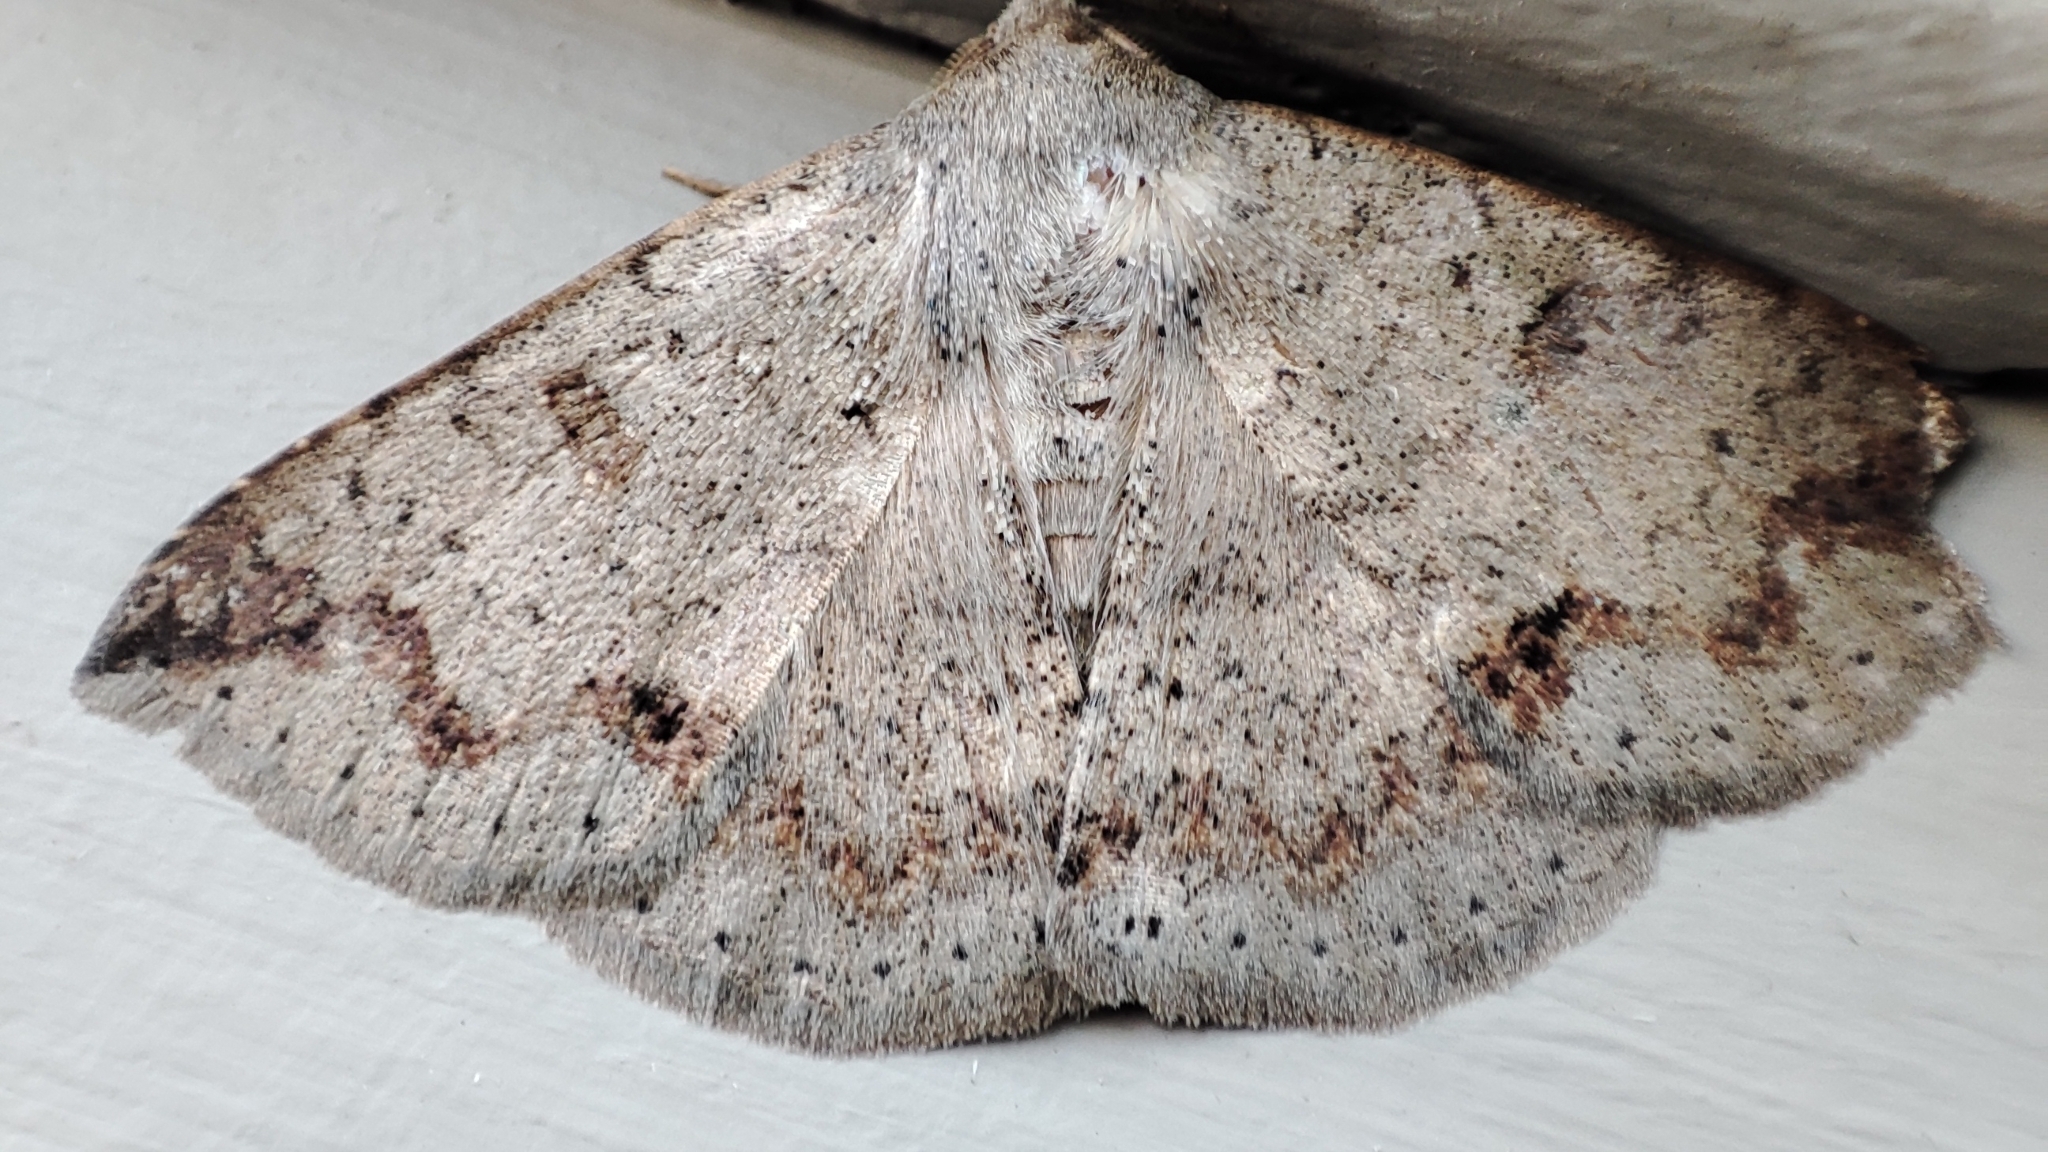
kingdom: Animalia
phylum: Arthropoda
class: Insecta
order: Lepidoptera
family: Erebidae
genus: Ericeia
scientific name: Ericeia inangulata
